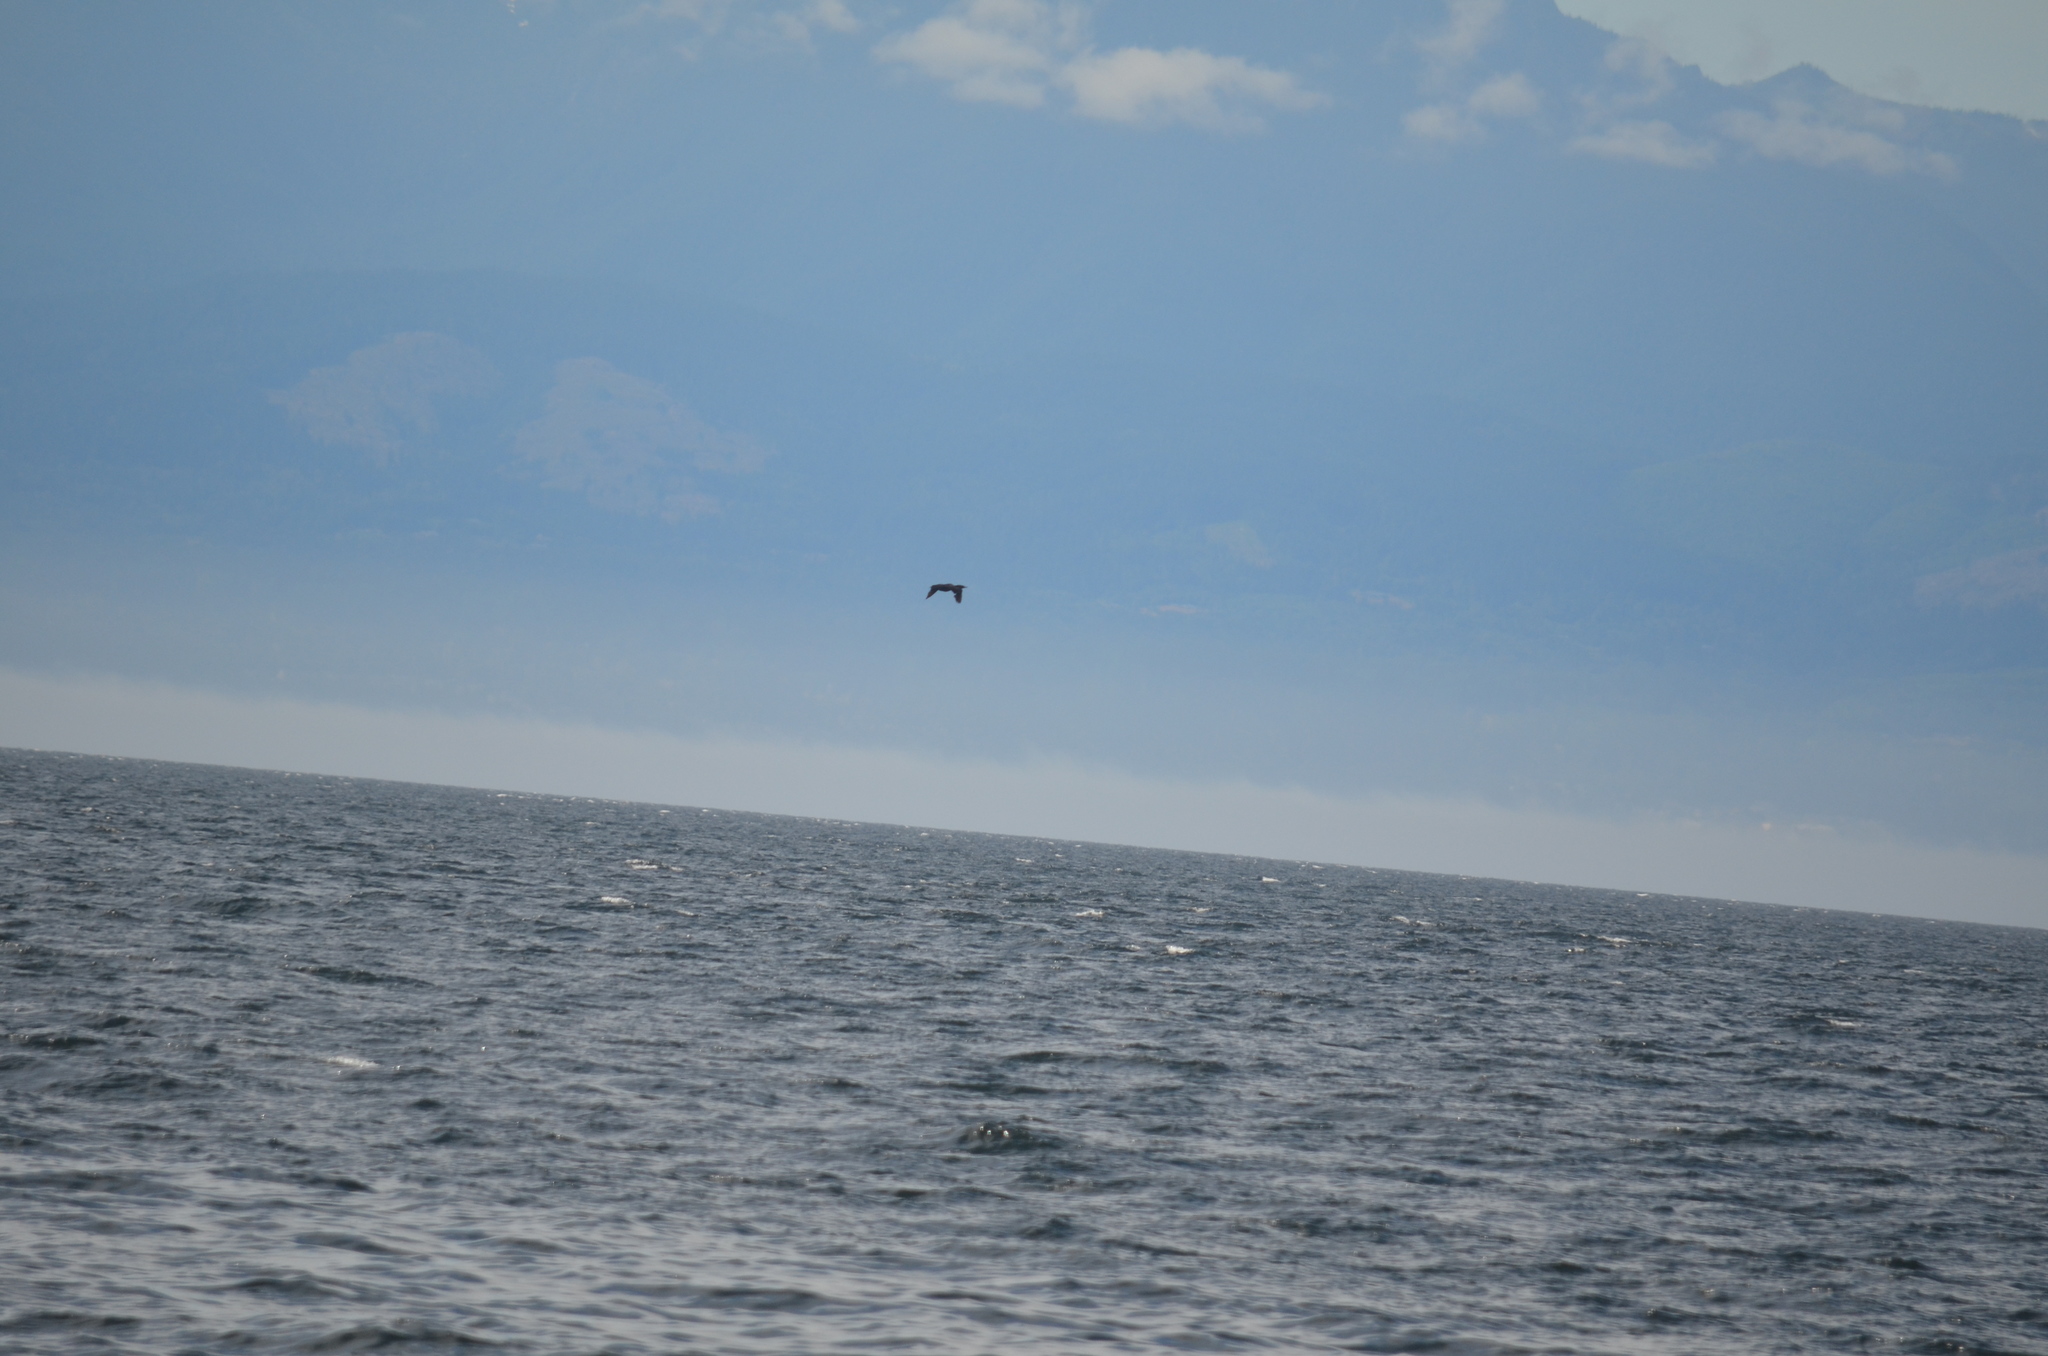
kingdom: Animalia
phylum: Chordata
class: Aves
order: Suliformes
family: Phalacrocoracidae
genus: Phalacrocorax
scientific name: Phalacrocorax pelagicus
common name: Pelagic cormorant
